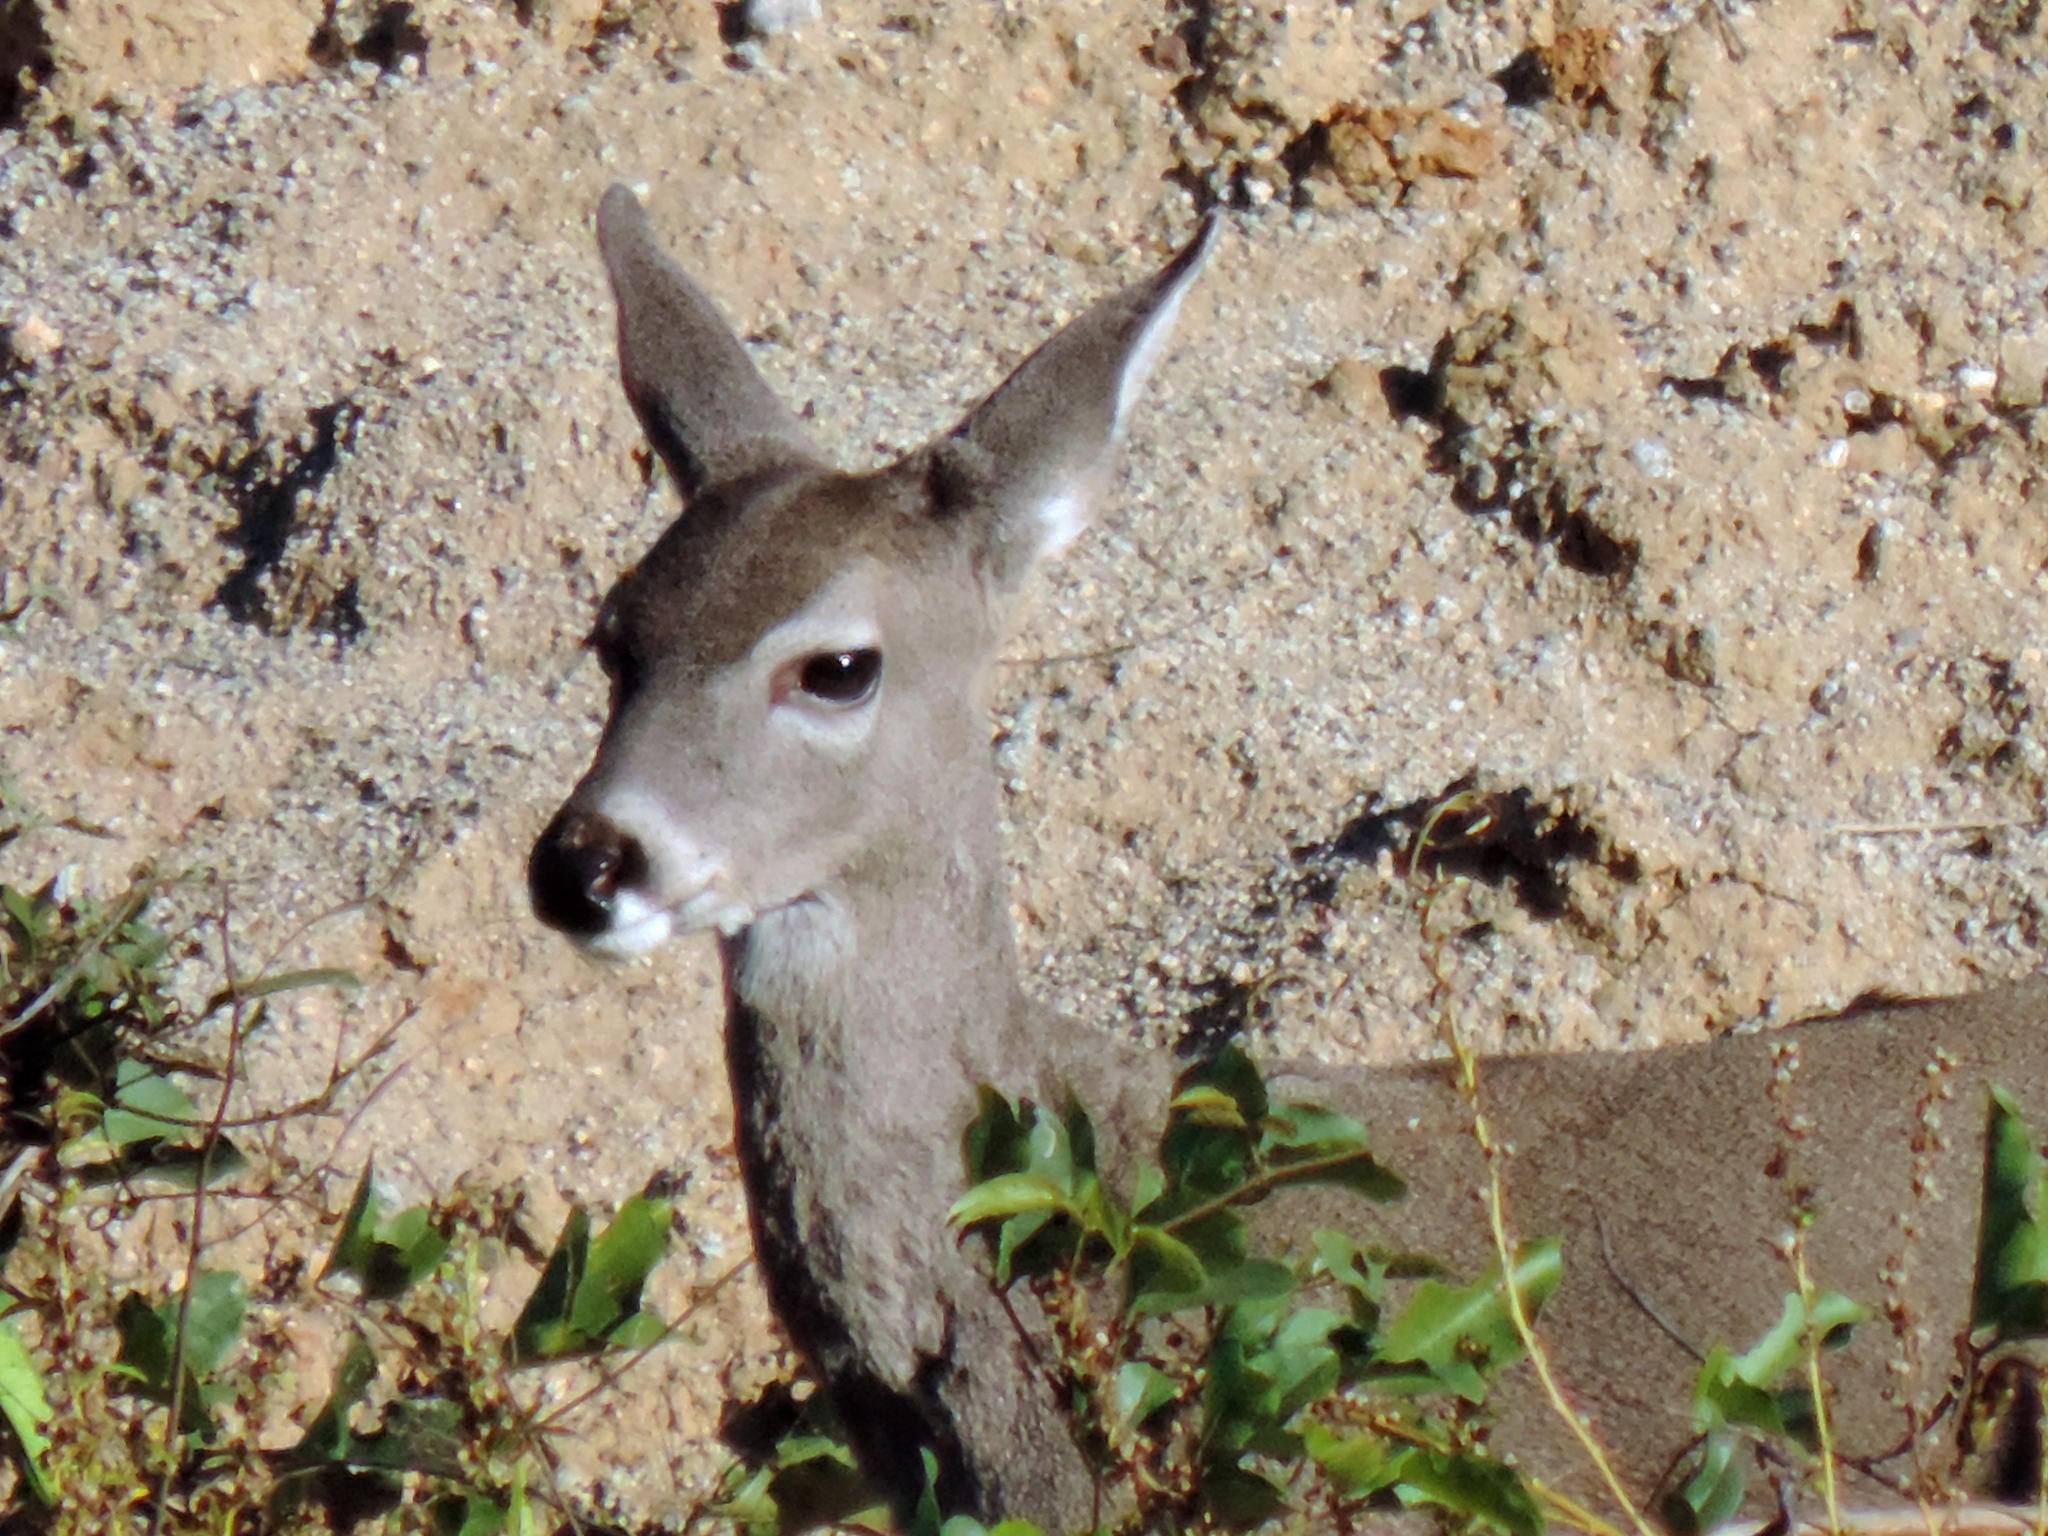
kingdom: Animalia
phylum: Chordata
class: Mammalia
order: Artiodactyla
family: Cervidae
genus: Odocoileus
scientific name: Odocoileus virginianus
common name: White-tailed deer
